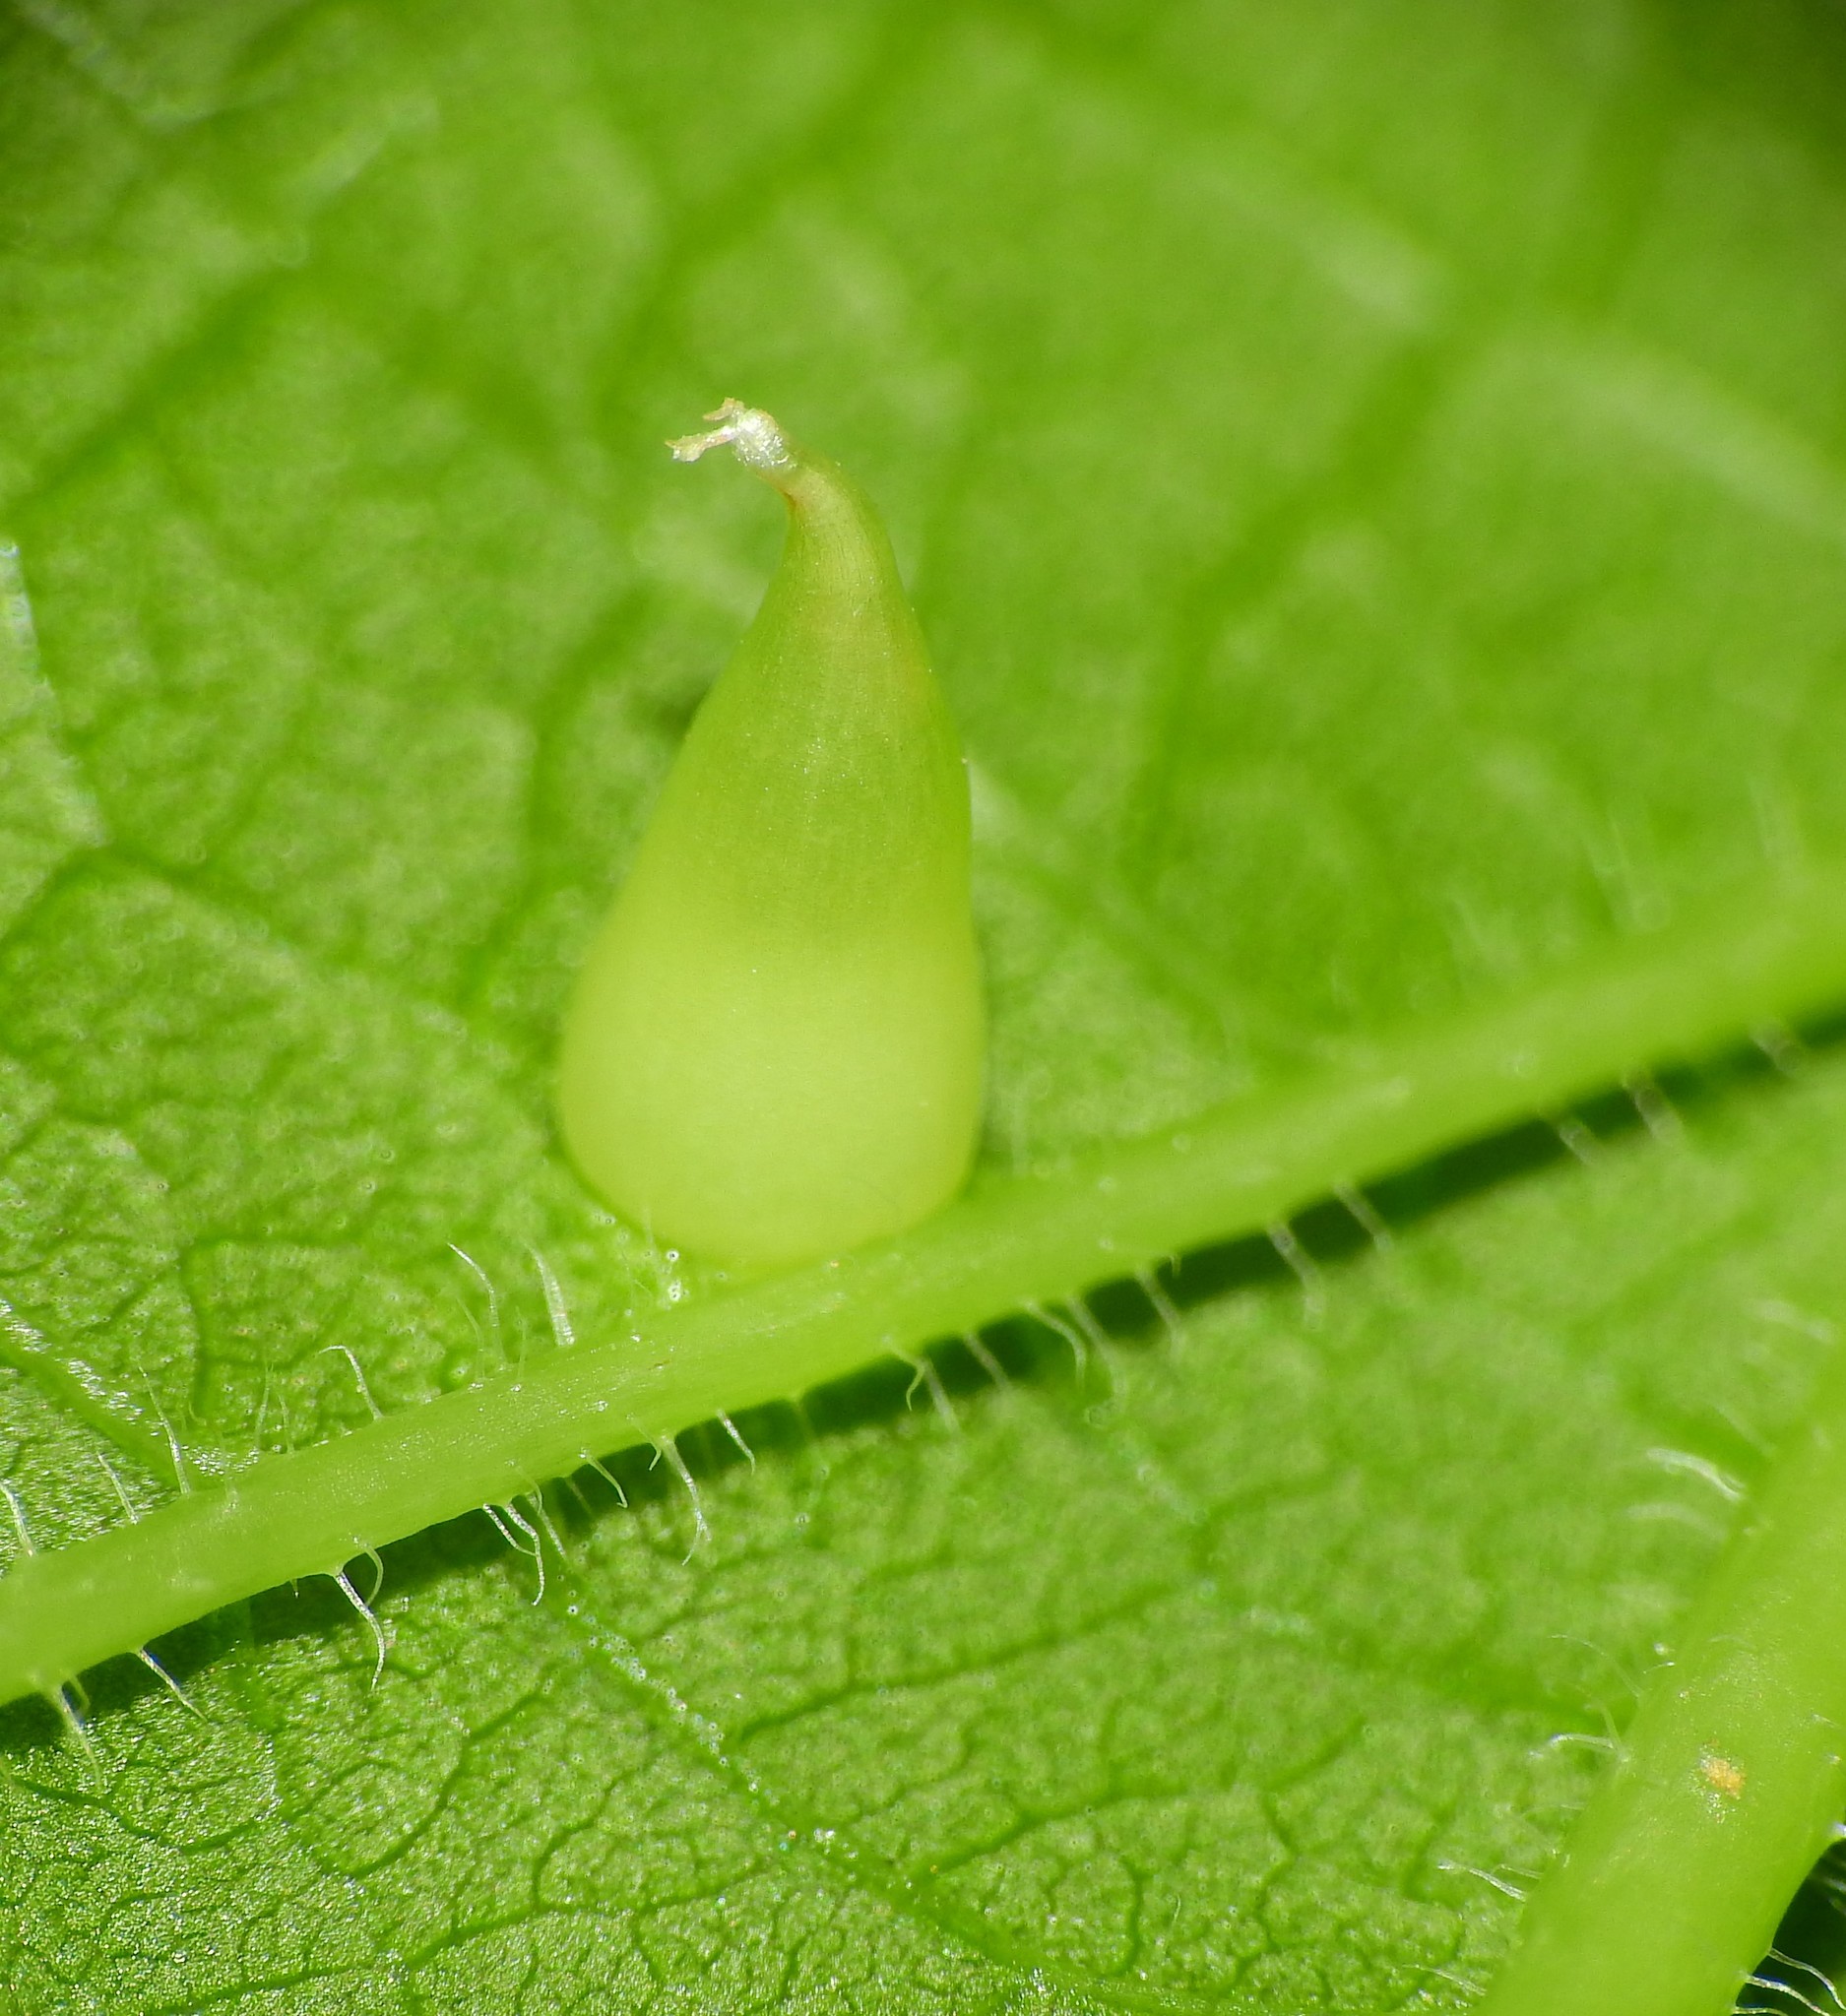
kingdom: Animalia
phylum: Arthropoda
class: Insecta
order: Diptera
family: Cecidomyiidae
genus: Celticecis
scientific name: Celticecis conica
